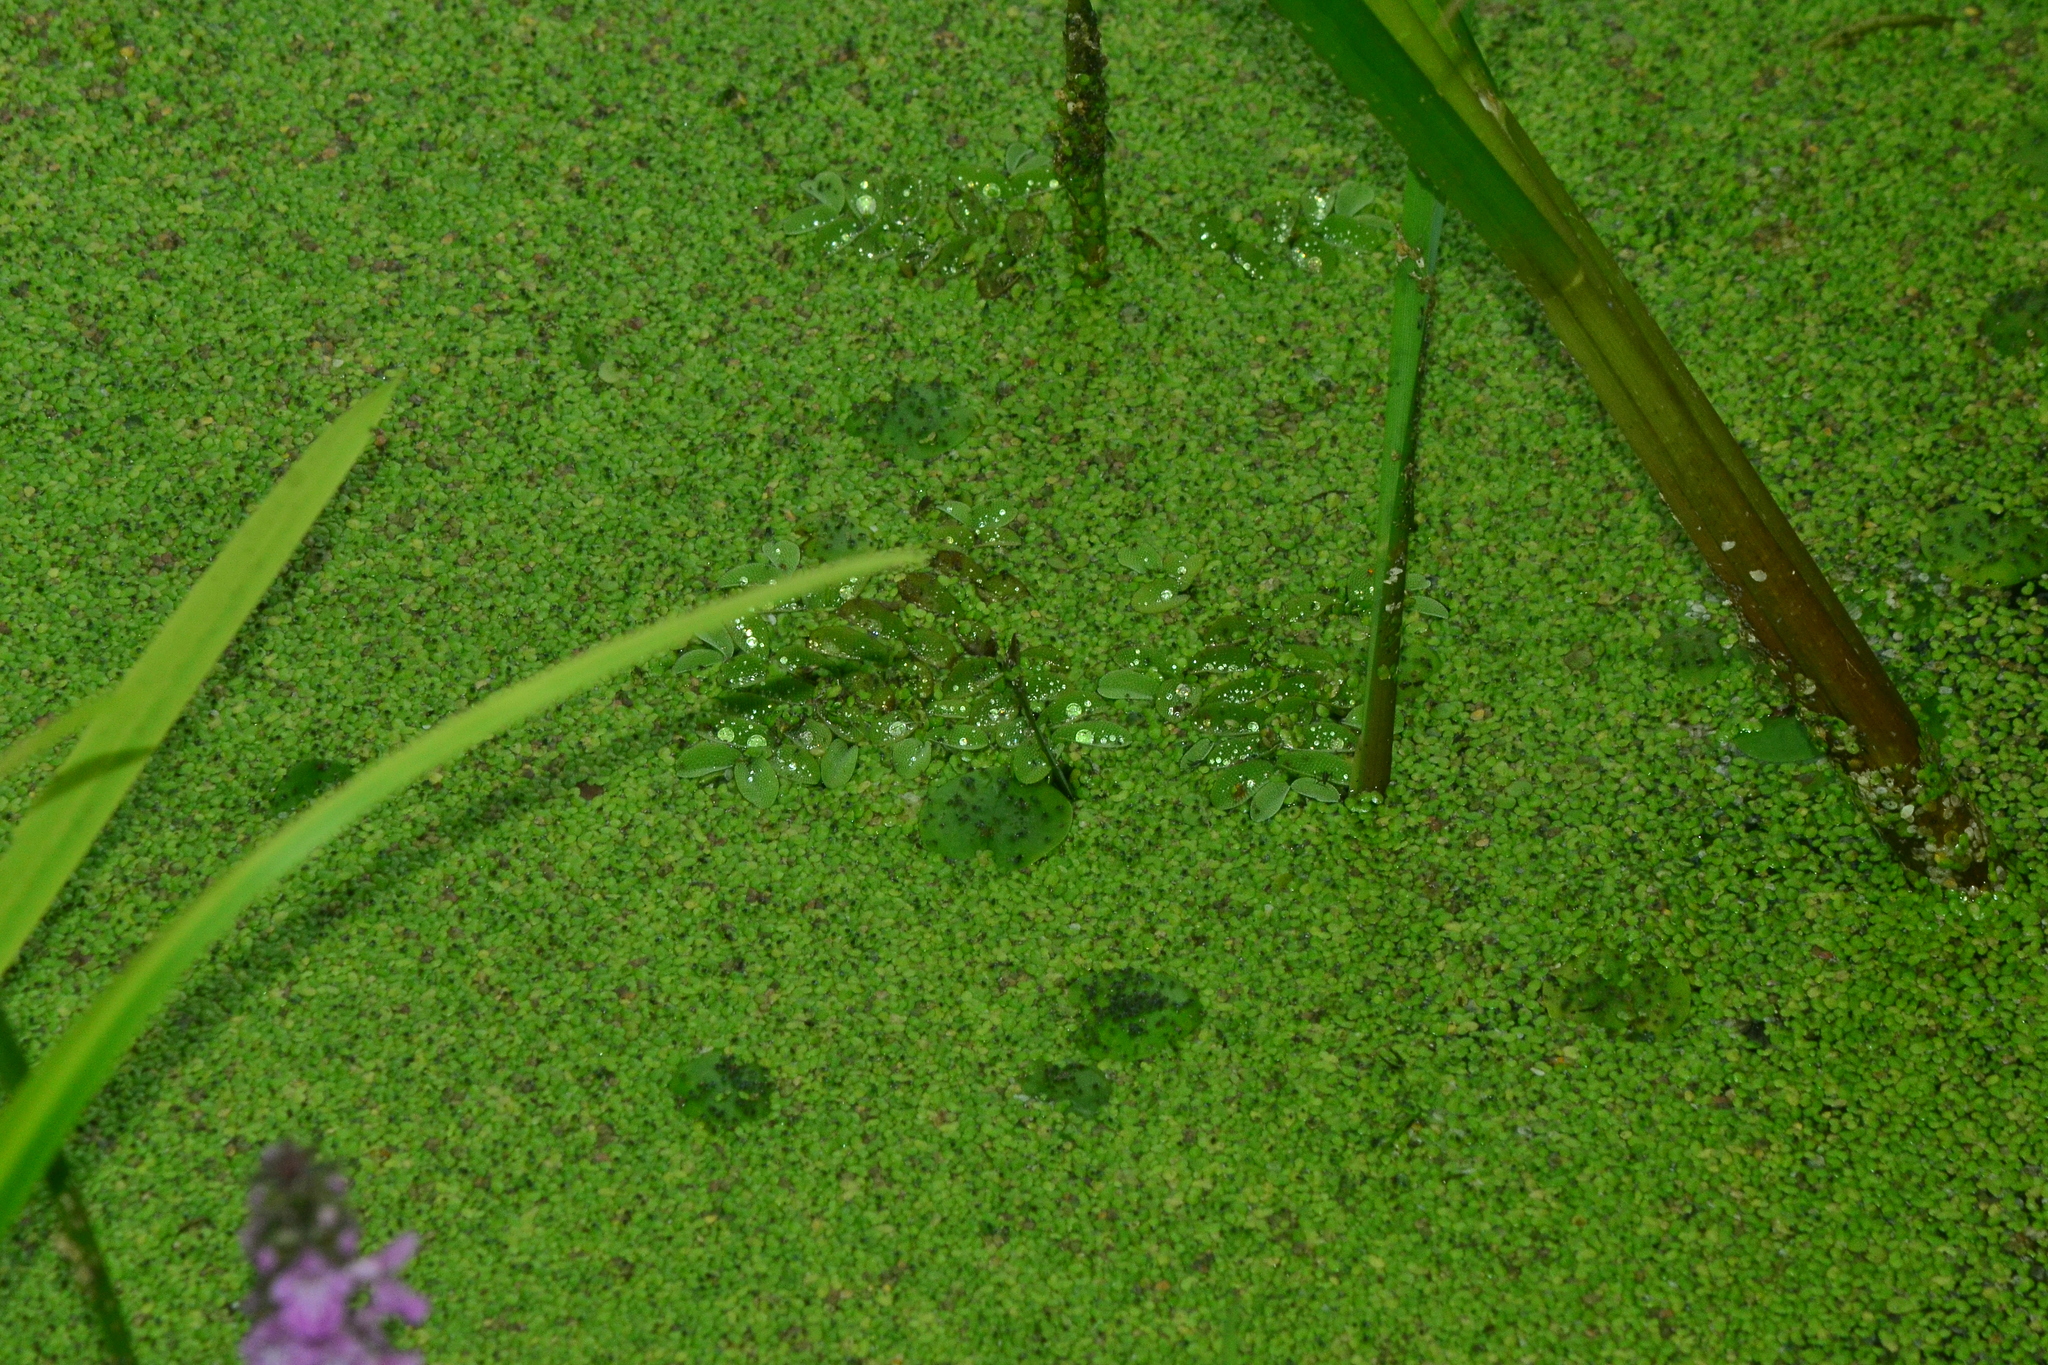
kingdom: Plantae
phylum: Tracheophyta
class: Polypodiopsida
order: Salviniales
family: Salviniaceae
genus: Salvinia
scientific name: Salvinia natans
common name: Floating fern
